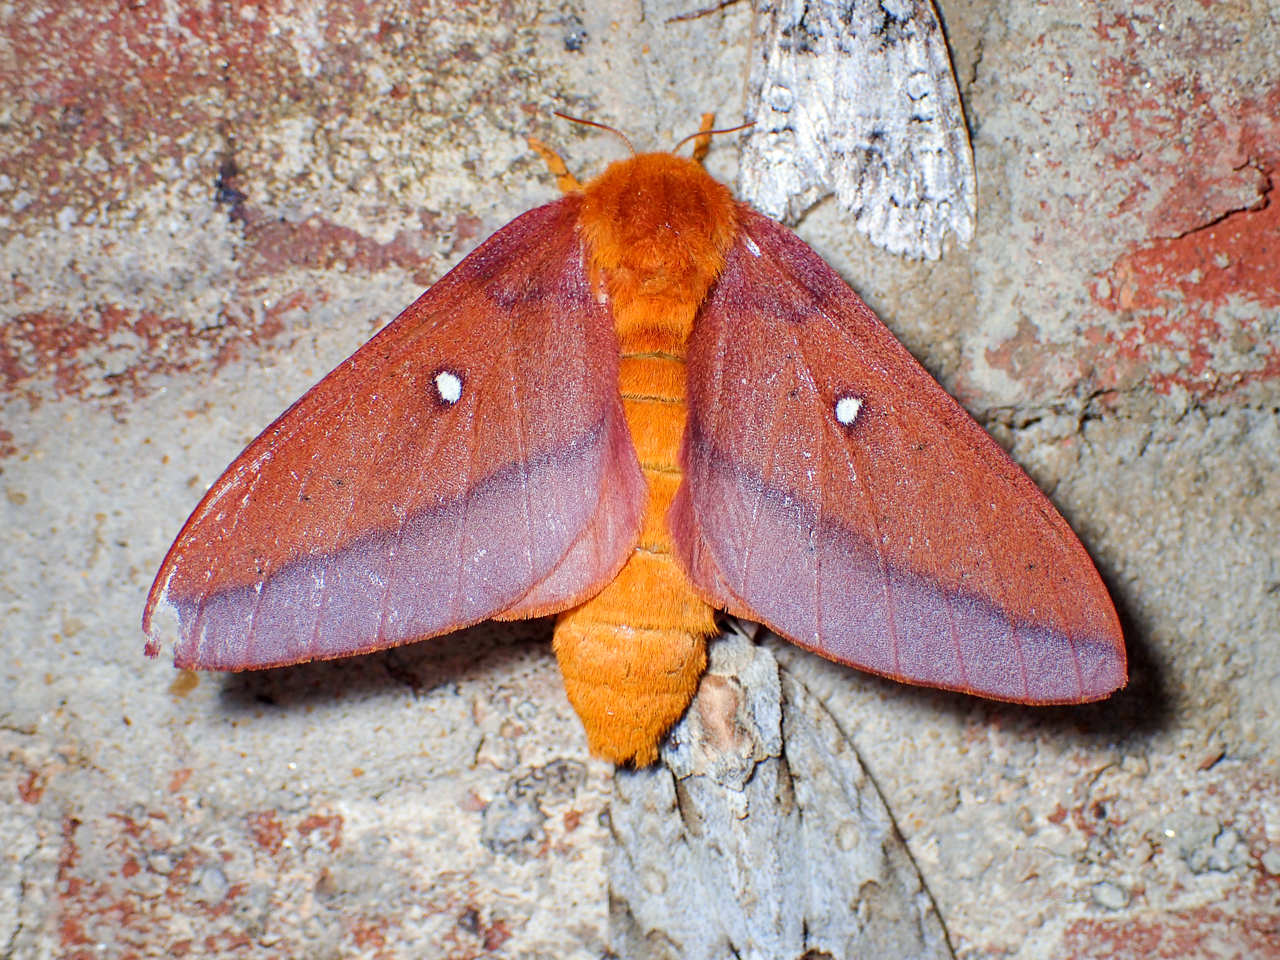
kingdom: Animalia
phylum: Arthropoda
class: Insecta
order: Lepidoptera
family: Saturniidae
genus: Anisota
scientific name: Anisota virginiensis
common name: Pink striped oakworm moth
